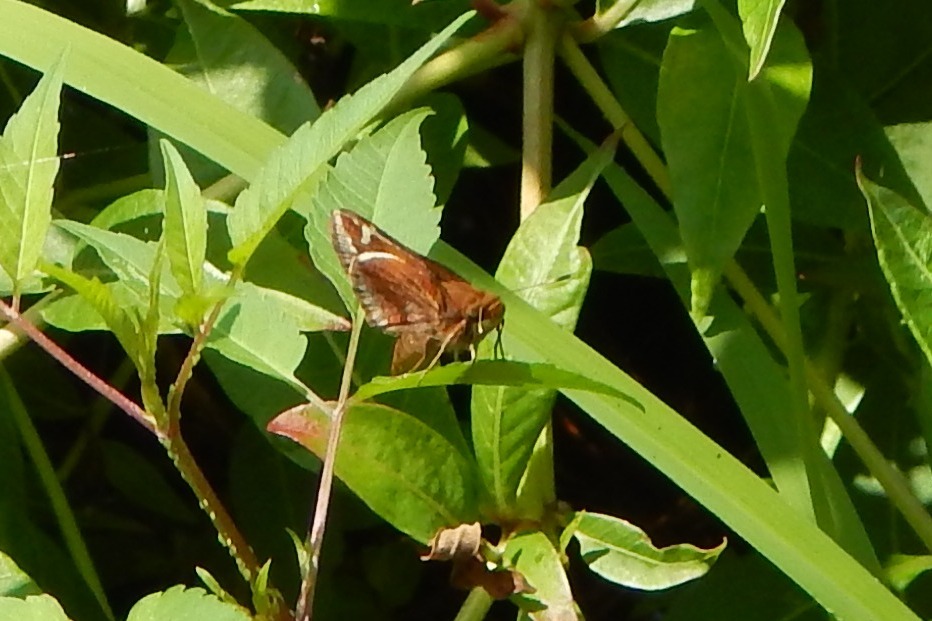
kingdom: Animalia
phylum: Arthropoda
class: Insecta
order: Lepidoptera
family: Hesperiidae
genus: Lon
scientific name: Lon zabulon
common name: Zabulon skipper
